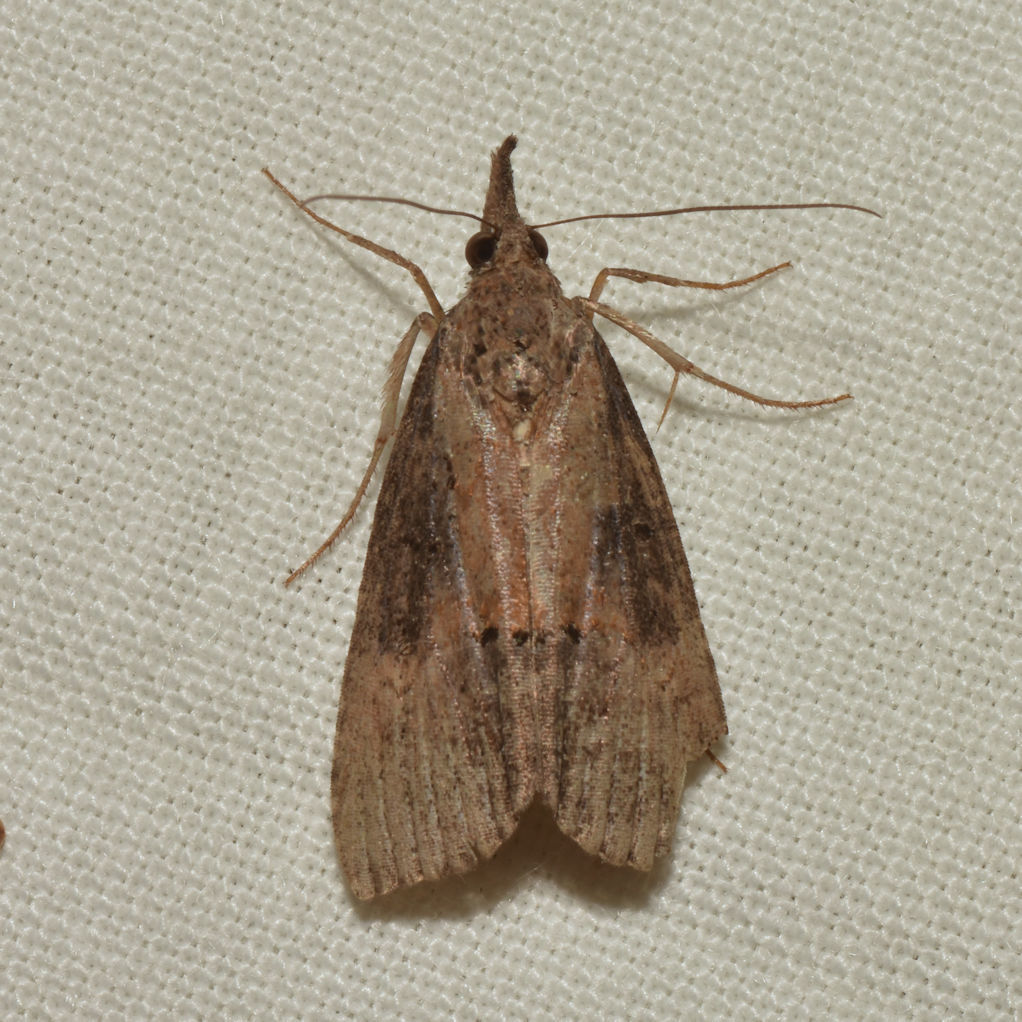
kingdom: Animalia
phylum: Arthropoda
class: Insecta
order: Lepidoptera
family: Erebidae
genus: Hypena
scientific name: Hypena scabra
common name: Green cloverworm
